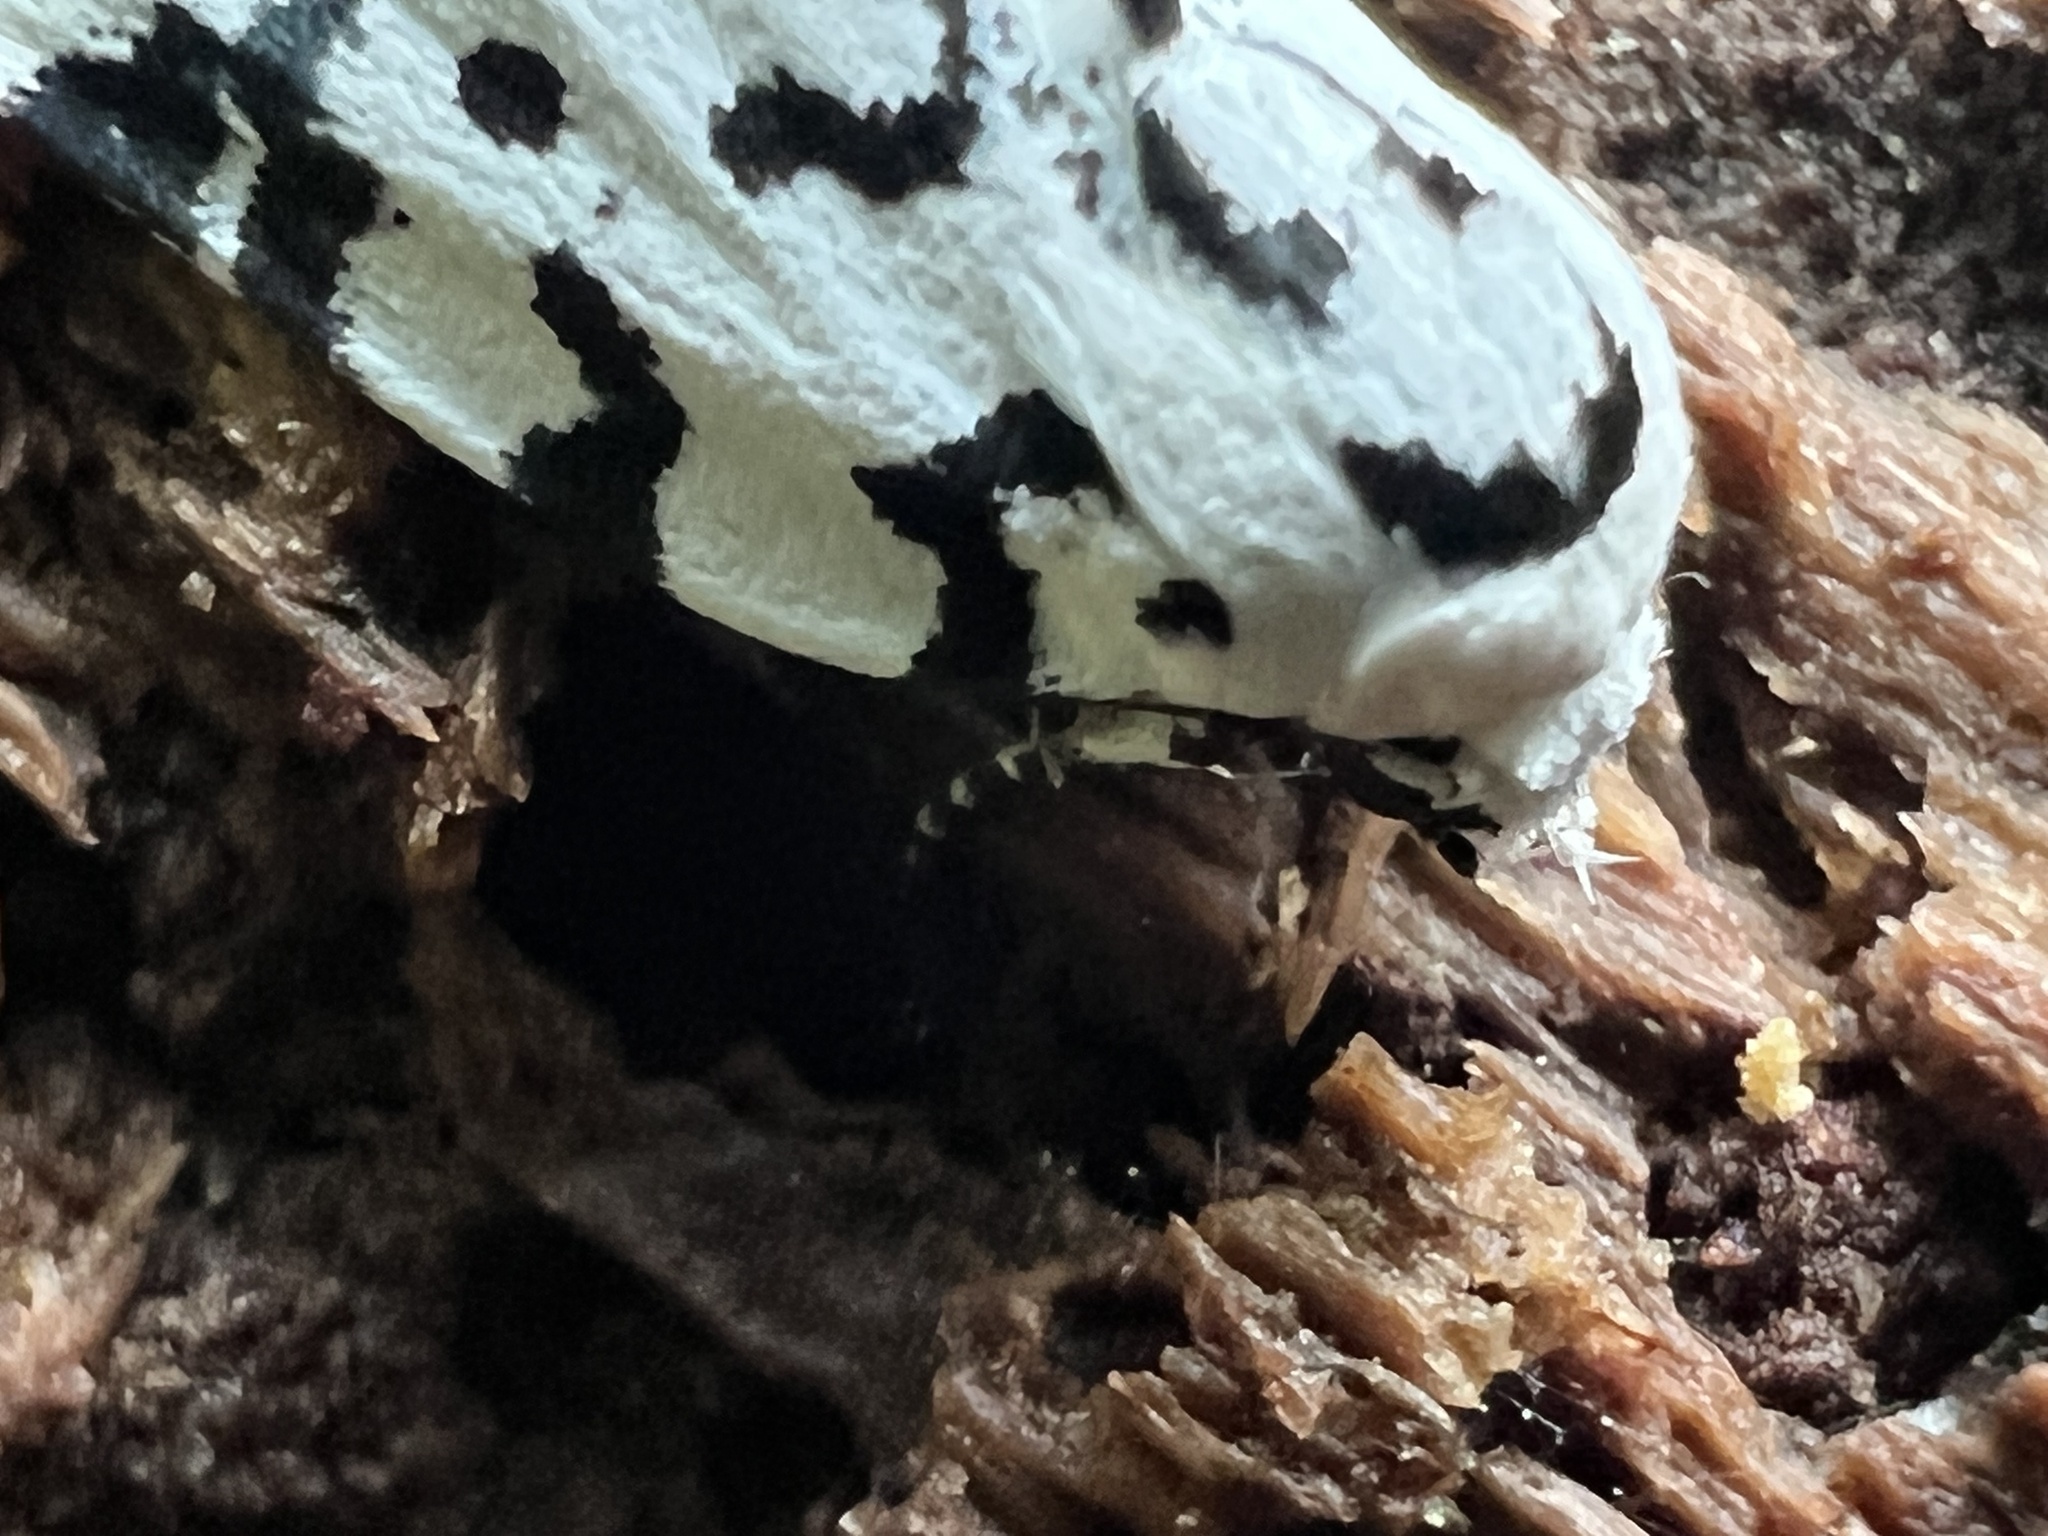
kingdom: Animalia
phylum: Arthropoda
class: Insecta
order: Lepidoptera
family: Noctuidae
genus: Polygrammate
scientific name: Polygrammate hebraeicum
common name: Hebrew moth
